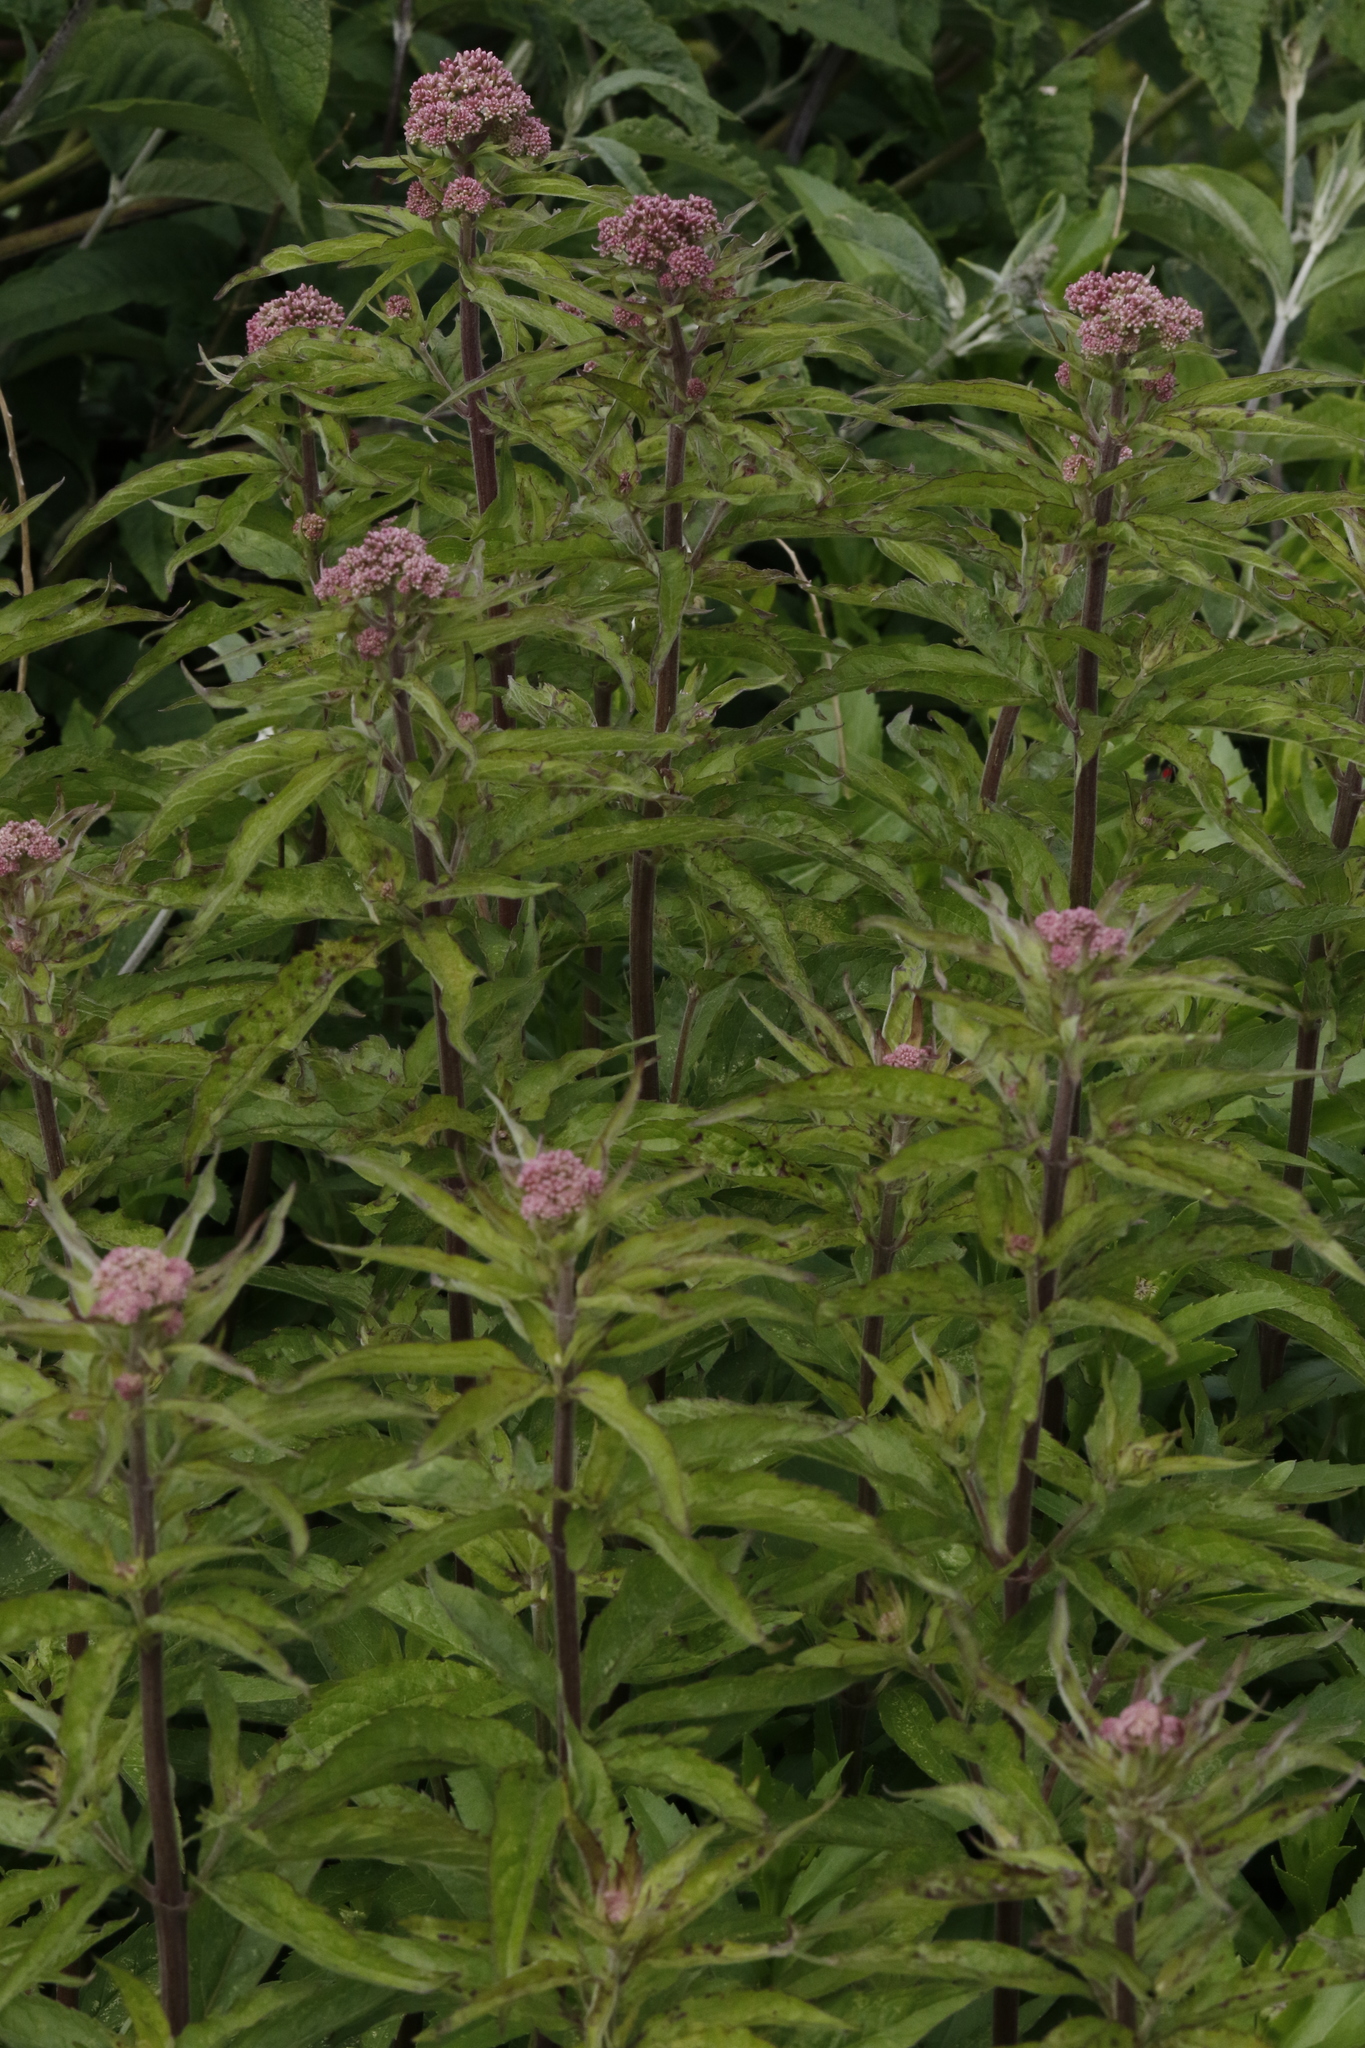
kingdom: Plantae
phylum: Tracheophyta
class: Magnoliopsida
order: Asterales
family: Asteraceae
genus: Eupatorium
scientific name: Eupatorium cannabinum
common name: Hemp-agrimony
